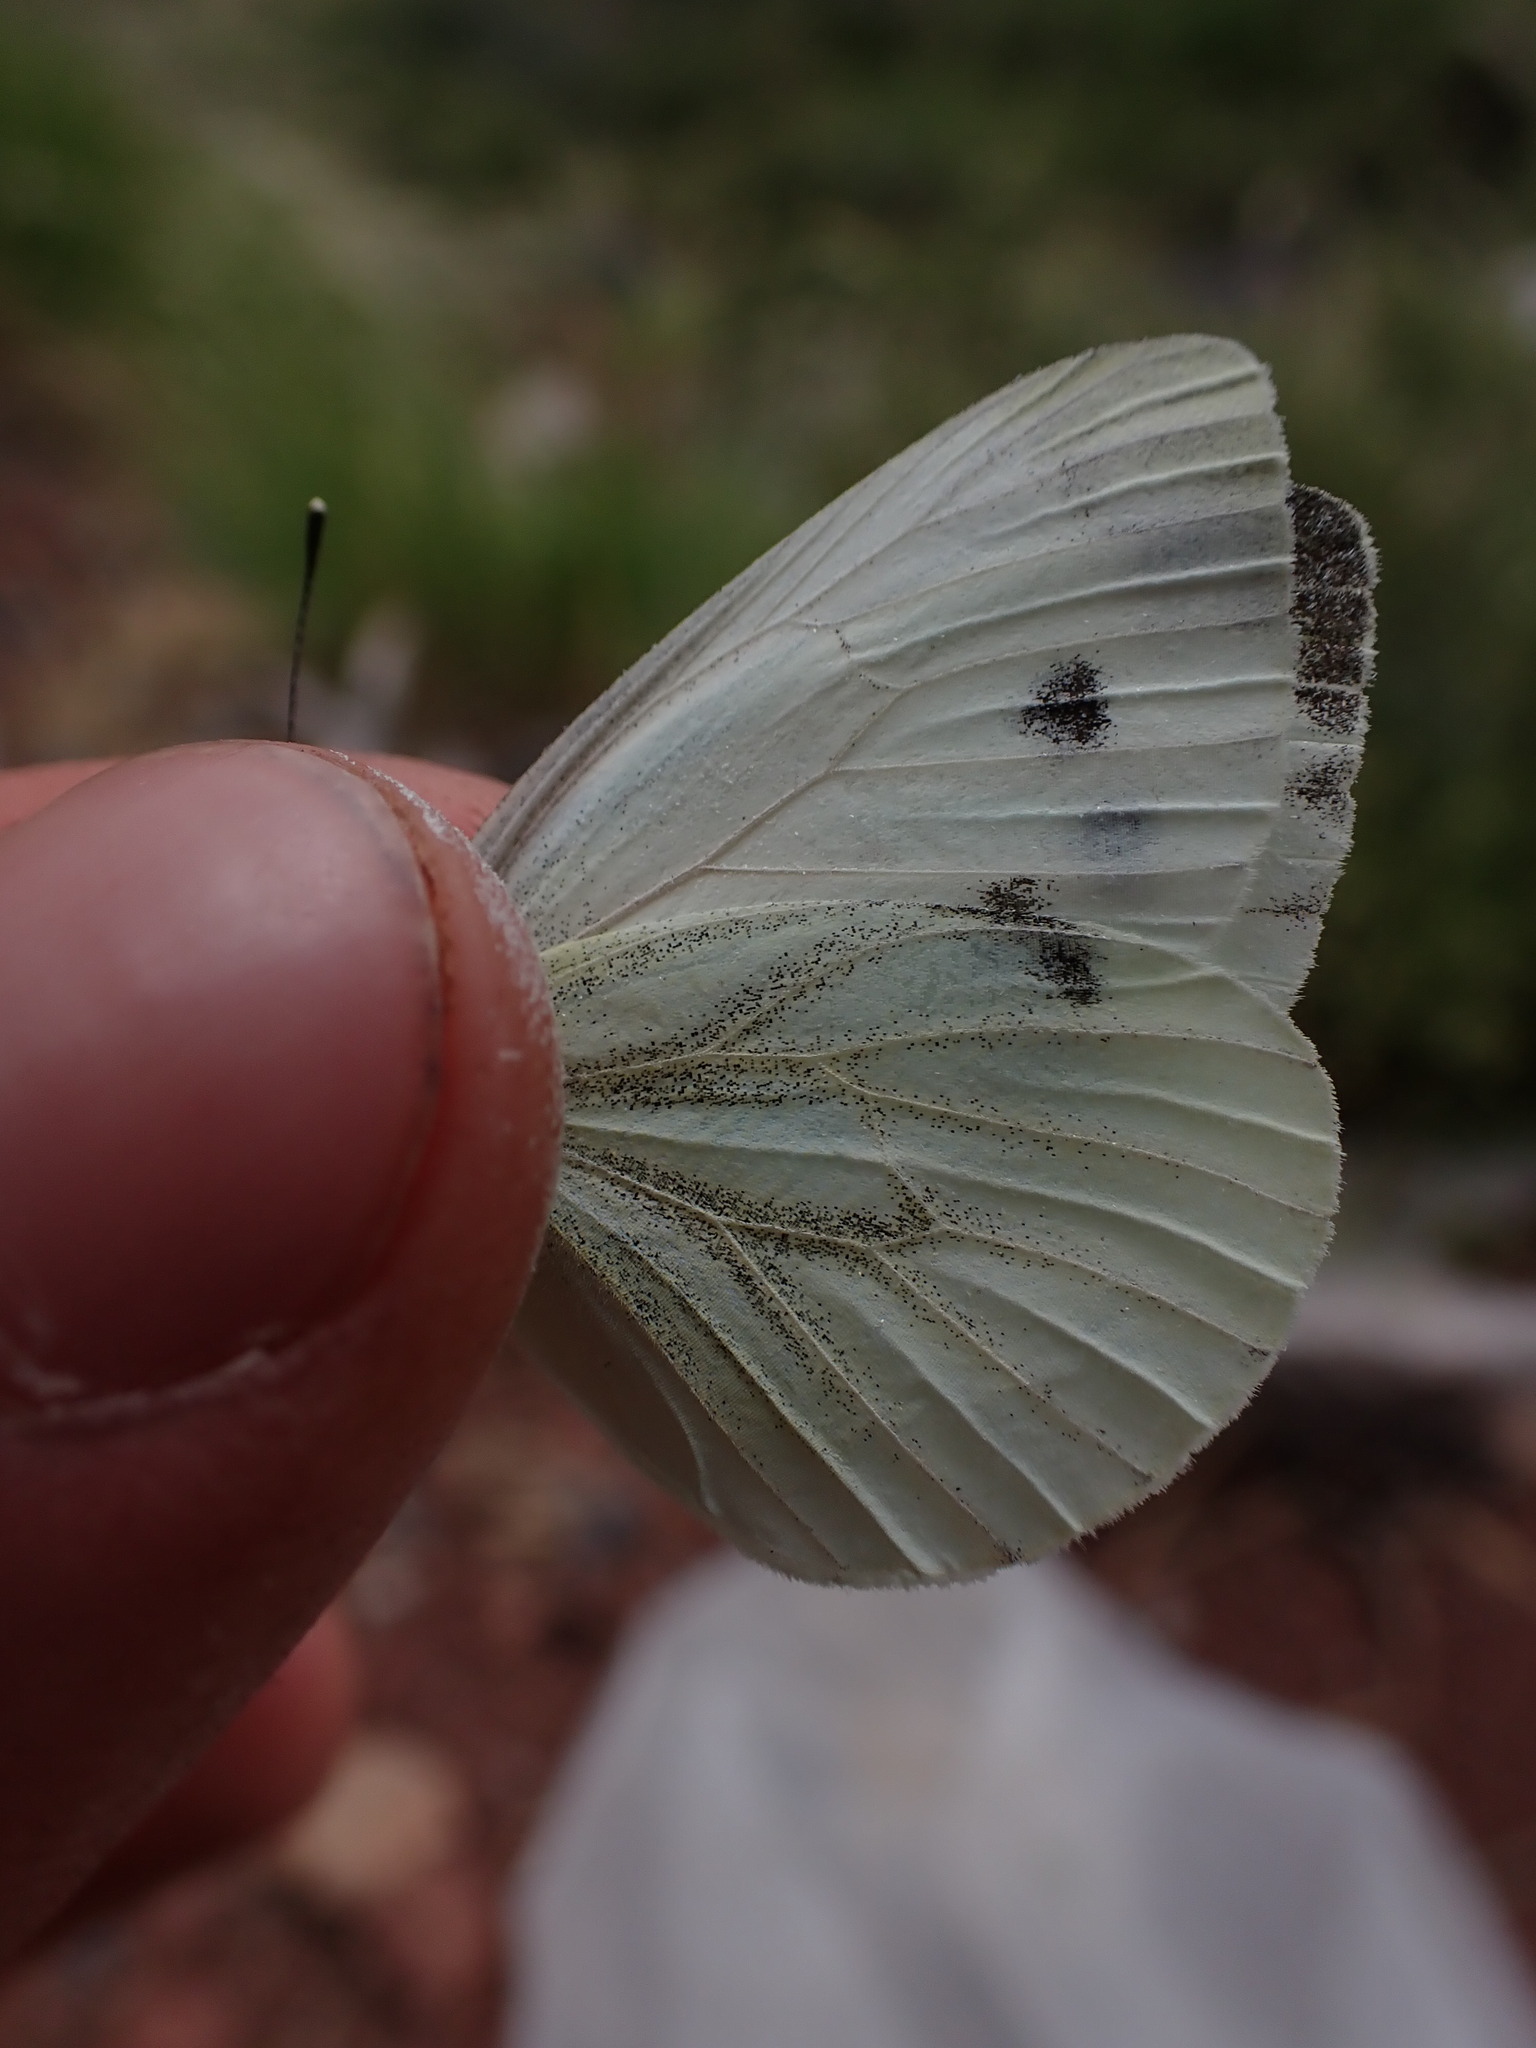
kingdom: Animalia
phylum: Arthropoda
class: Insecta
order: Lepidoptera
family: Pieridae
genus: Pieris
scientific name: Pieris napi
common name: Green-veined white
